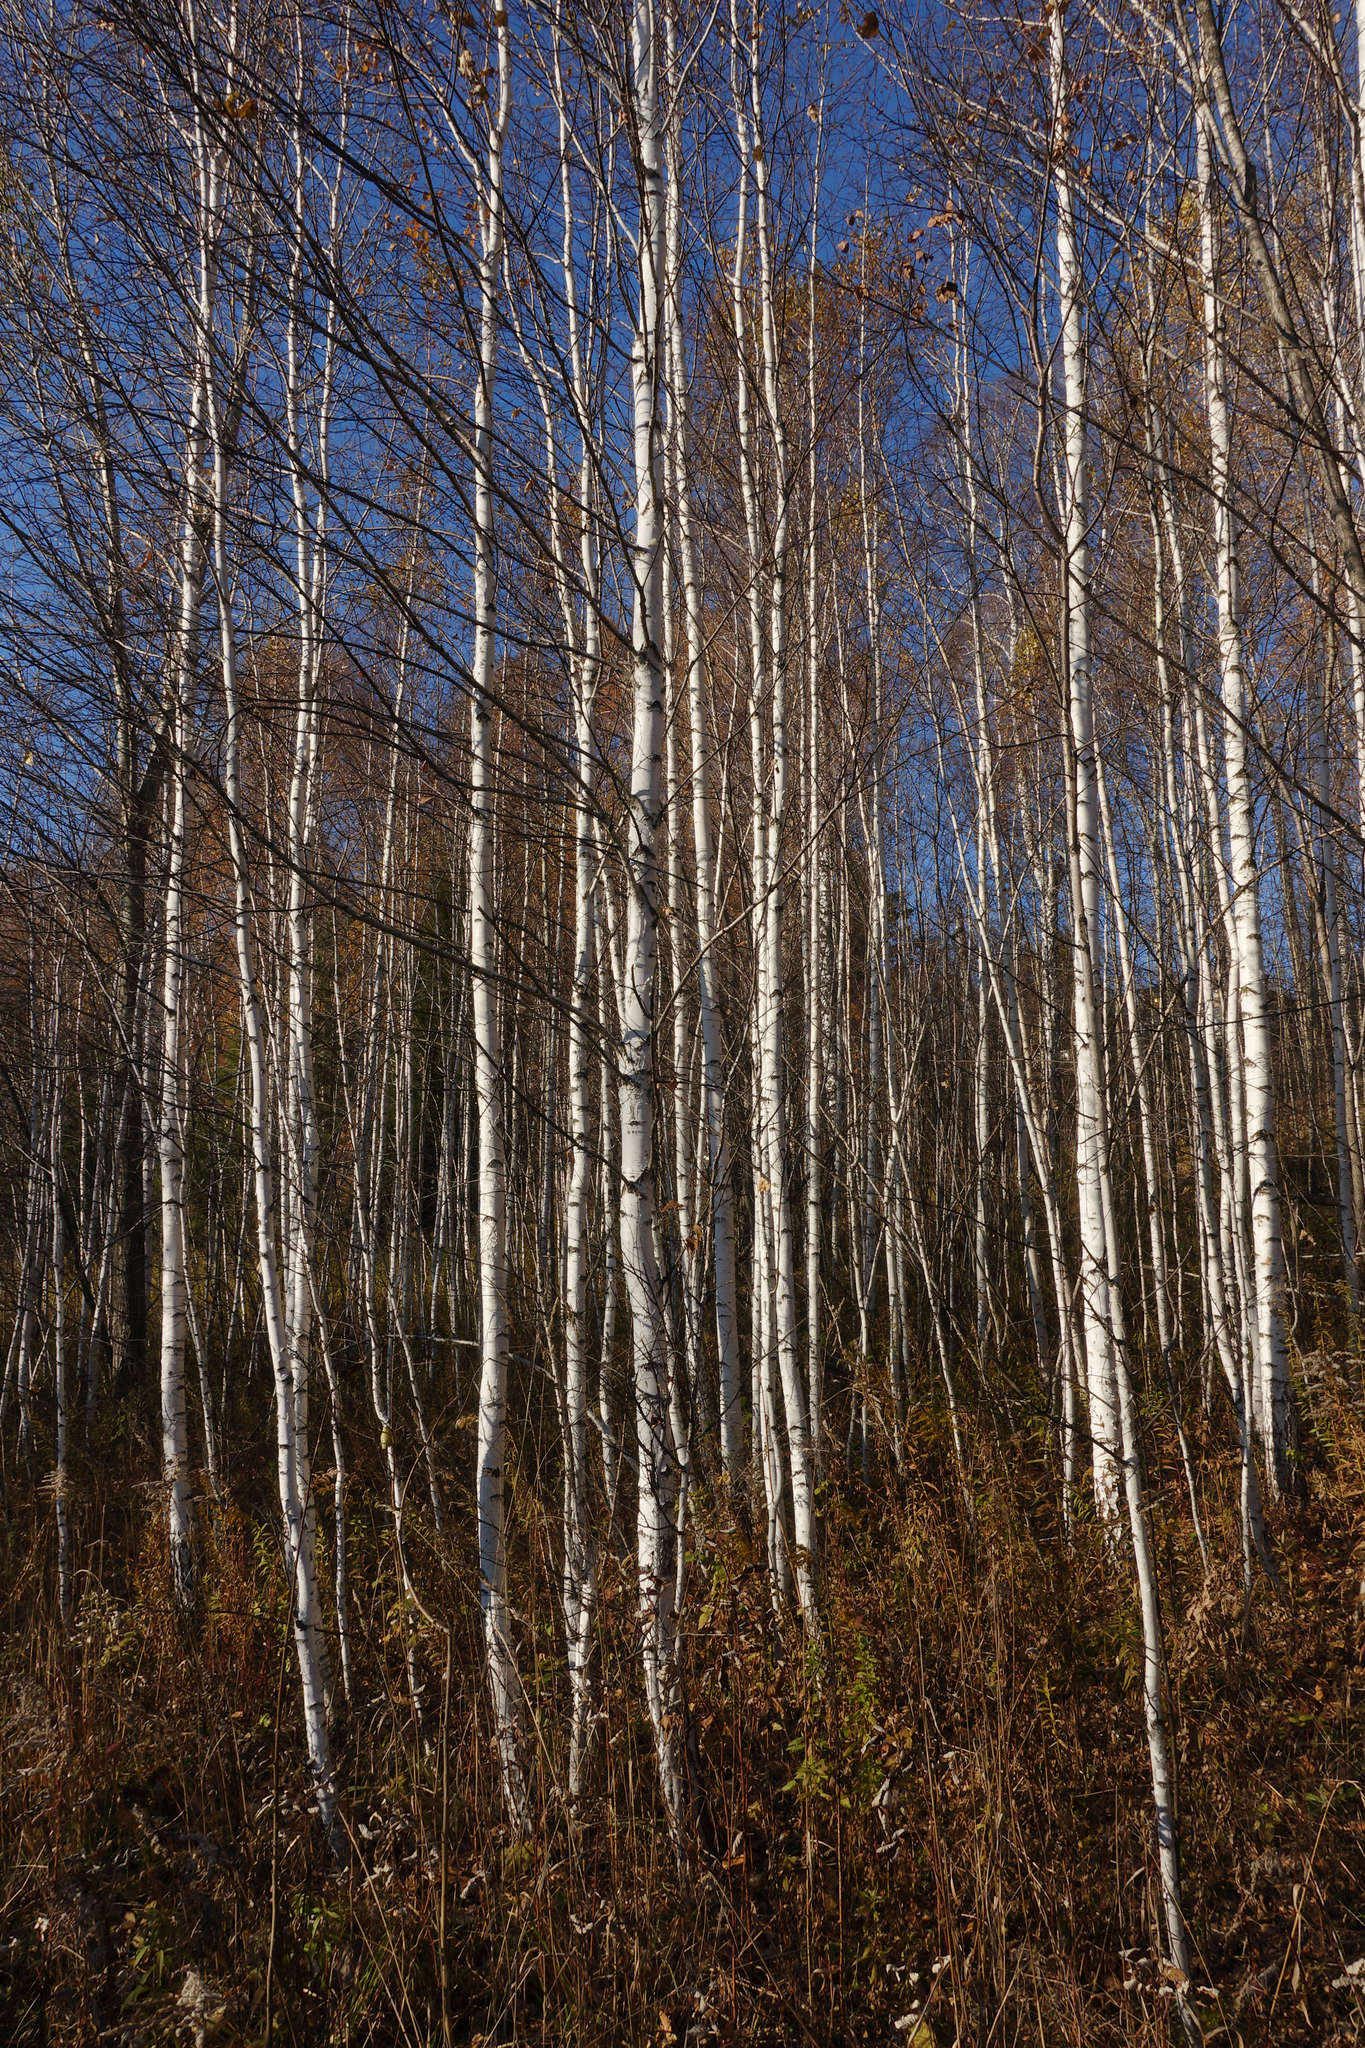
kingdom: Plantae
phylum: Tracheophyta
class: Magnoliopsida
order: Fagales
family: Betulaceae
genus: Betula
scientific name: Betula pendula
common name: Silver birch
